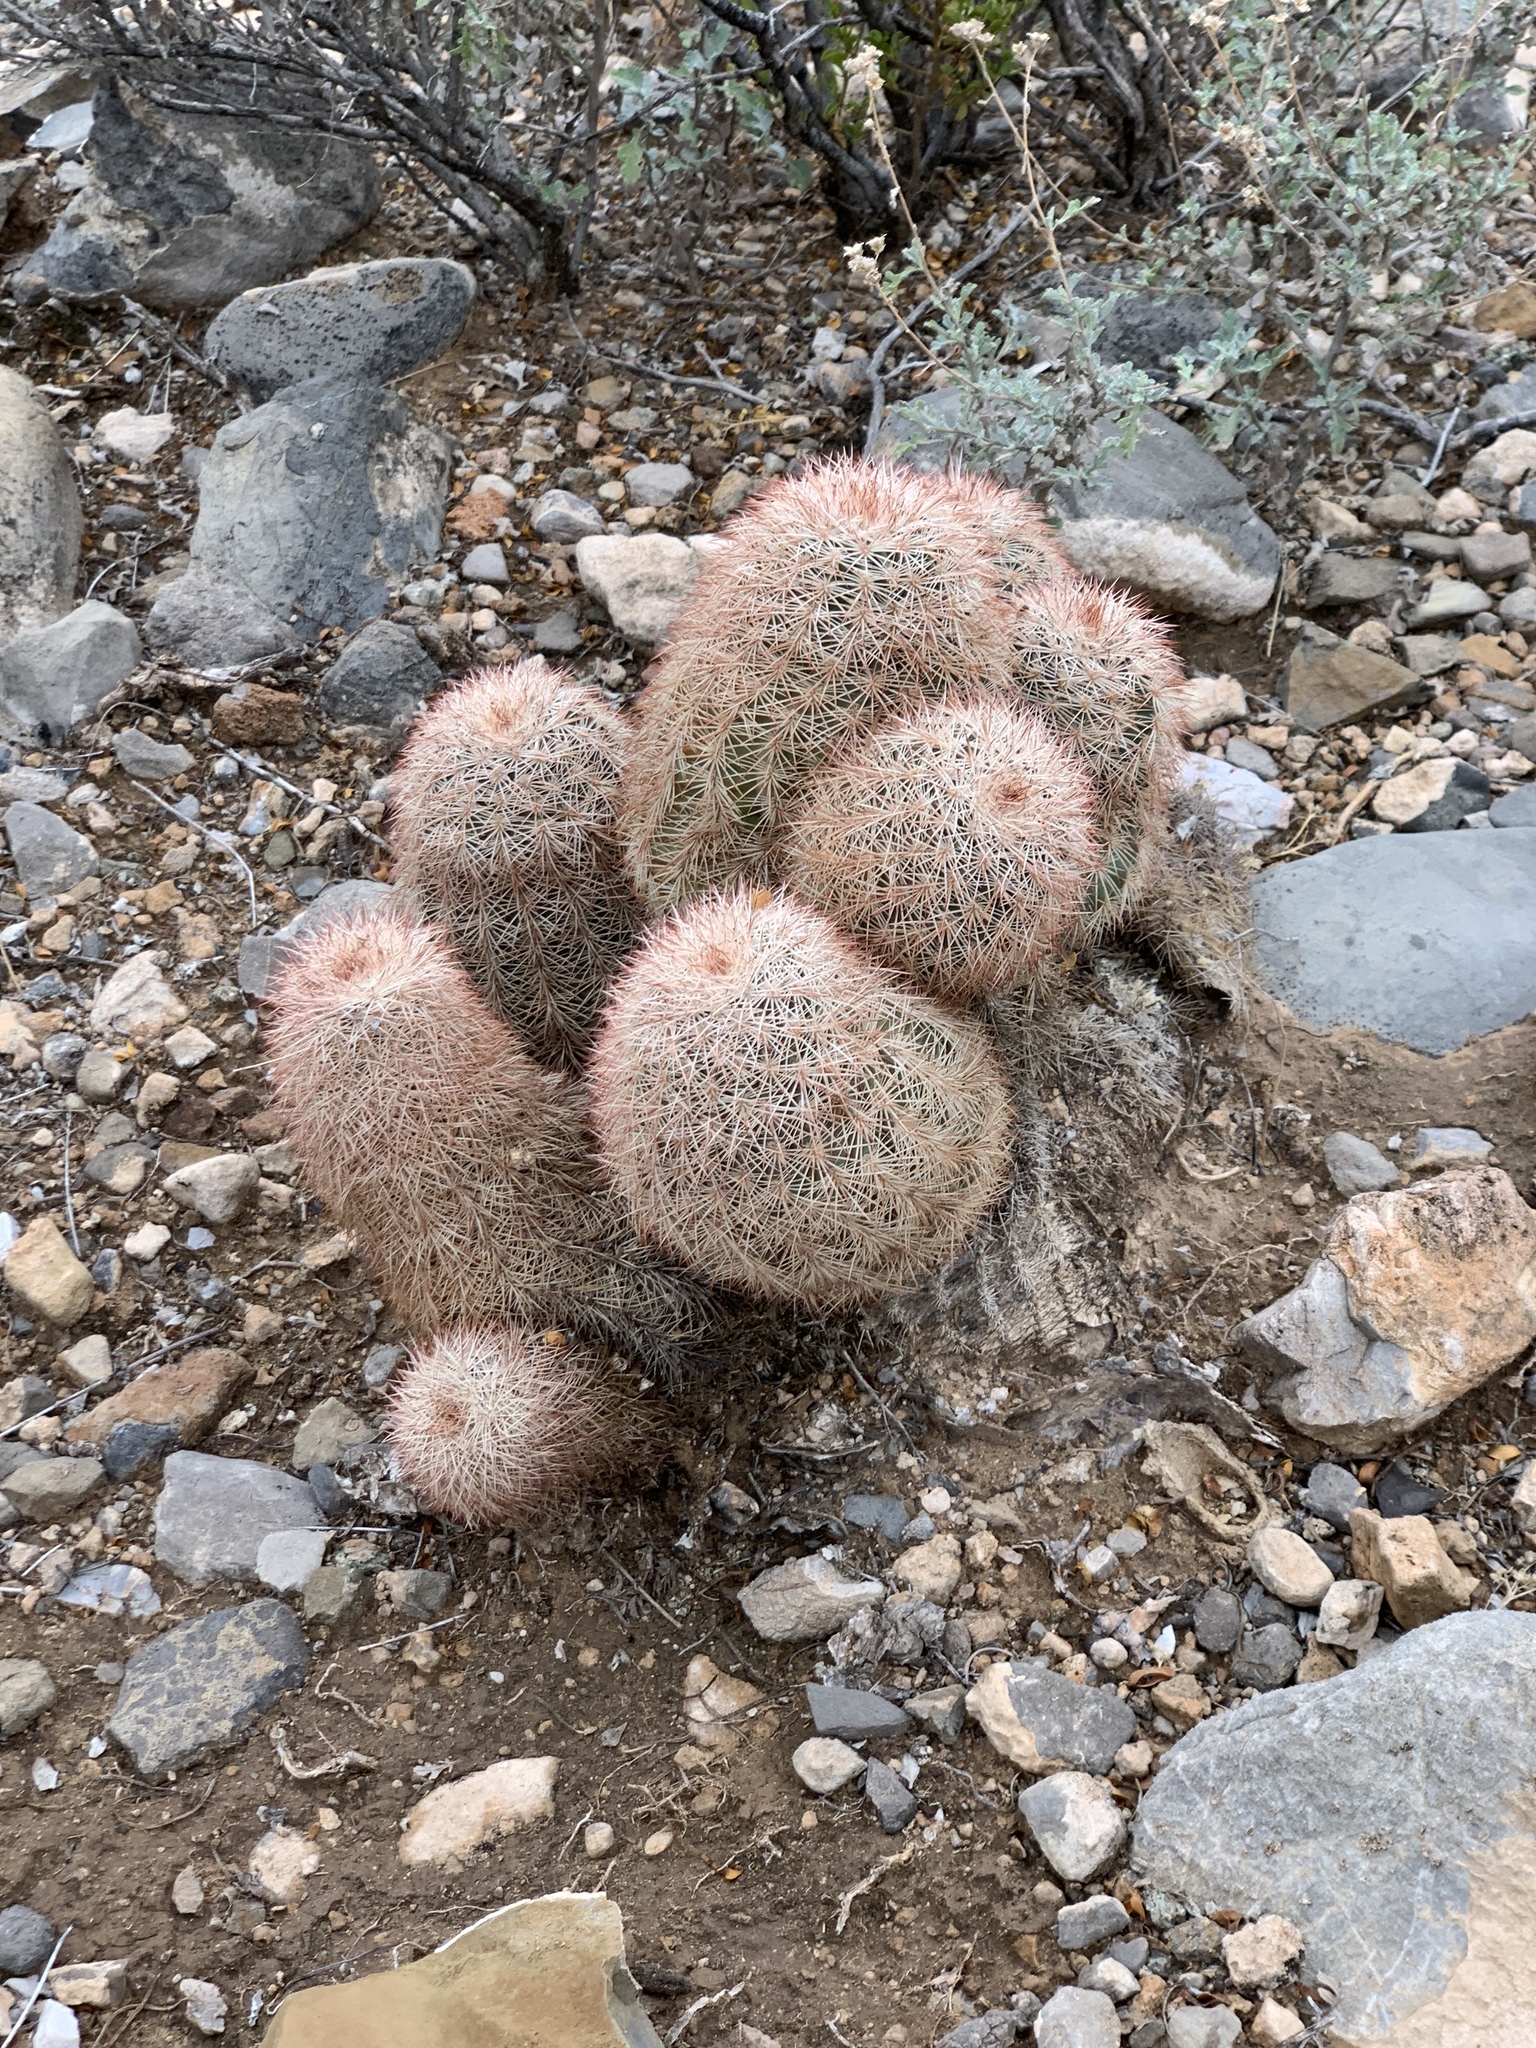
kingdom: Plantae
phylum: Tracheophyta
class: Magnoliopsida
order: Caryophyllales
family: Cactaceae
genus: Echinocereus
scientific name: Echinocereus dasyacanthus
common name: Spiny hedgehog cactus
